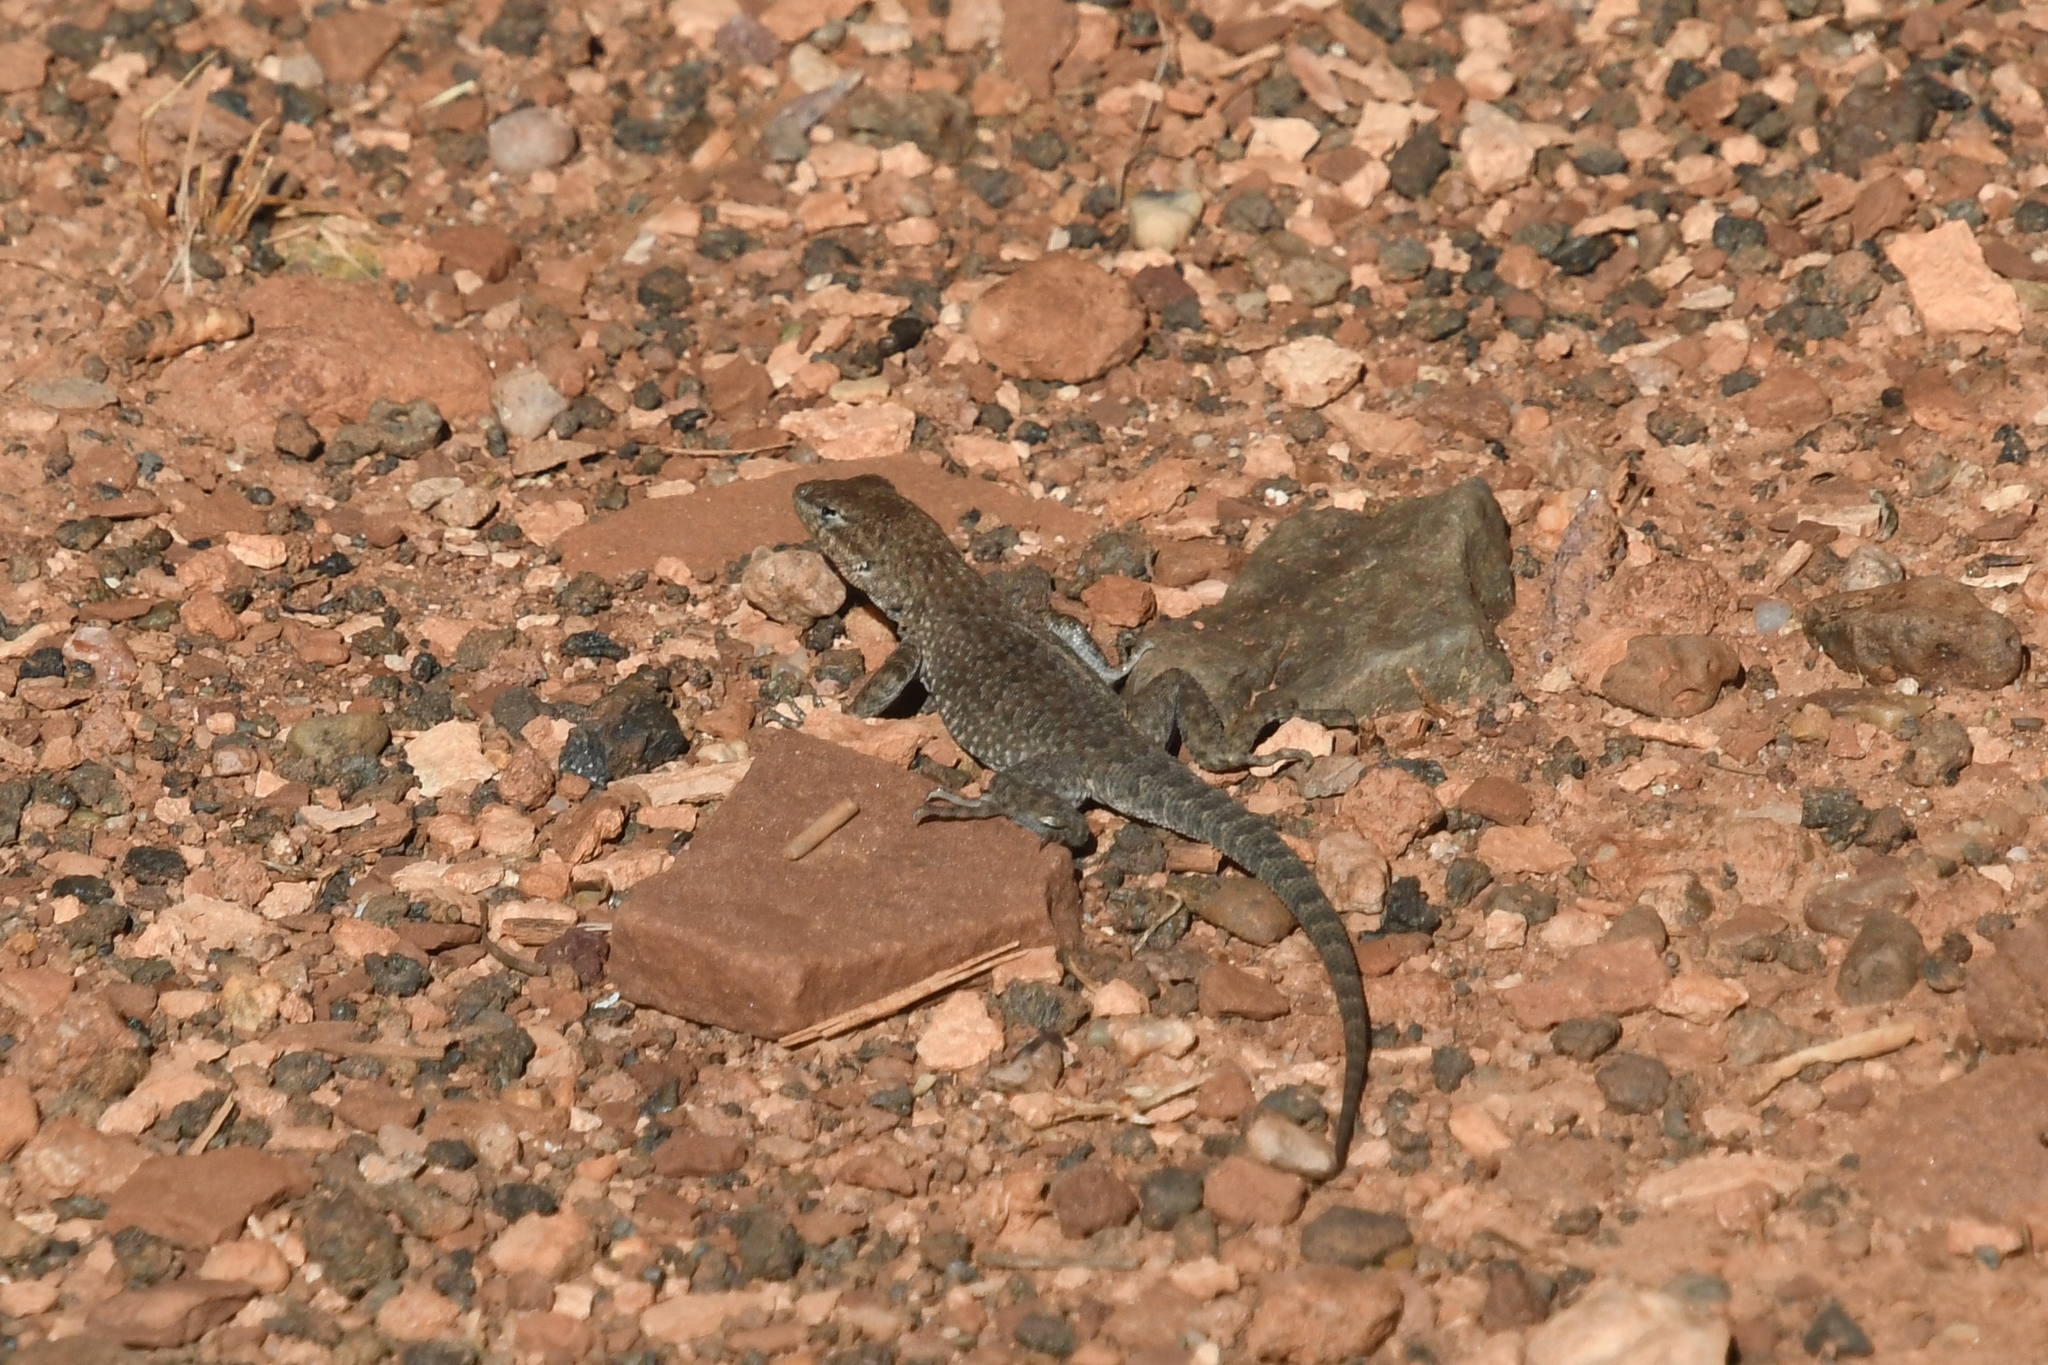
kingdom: Animalia
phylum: Chordata
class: Squamata
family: Phrynosomatidae
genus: Uta
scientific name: Uta stansburiana
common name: Side-blotched lizard
